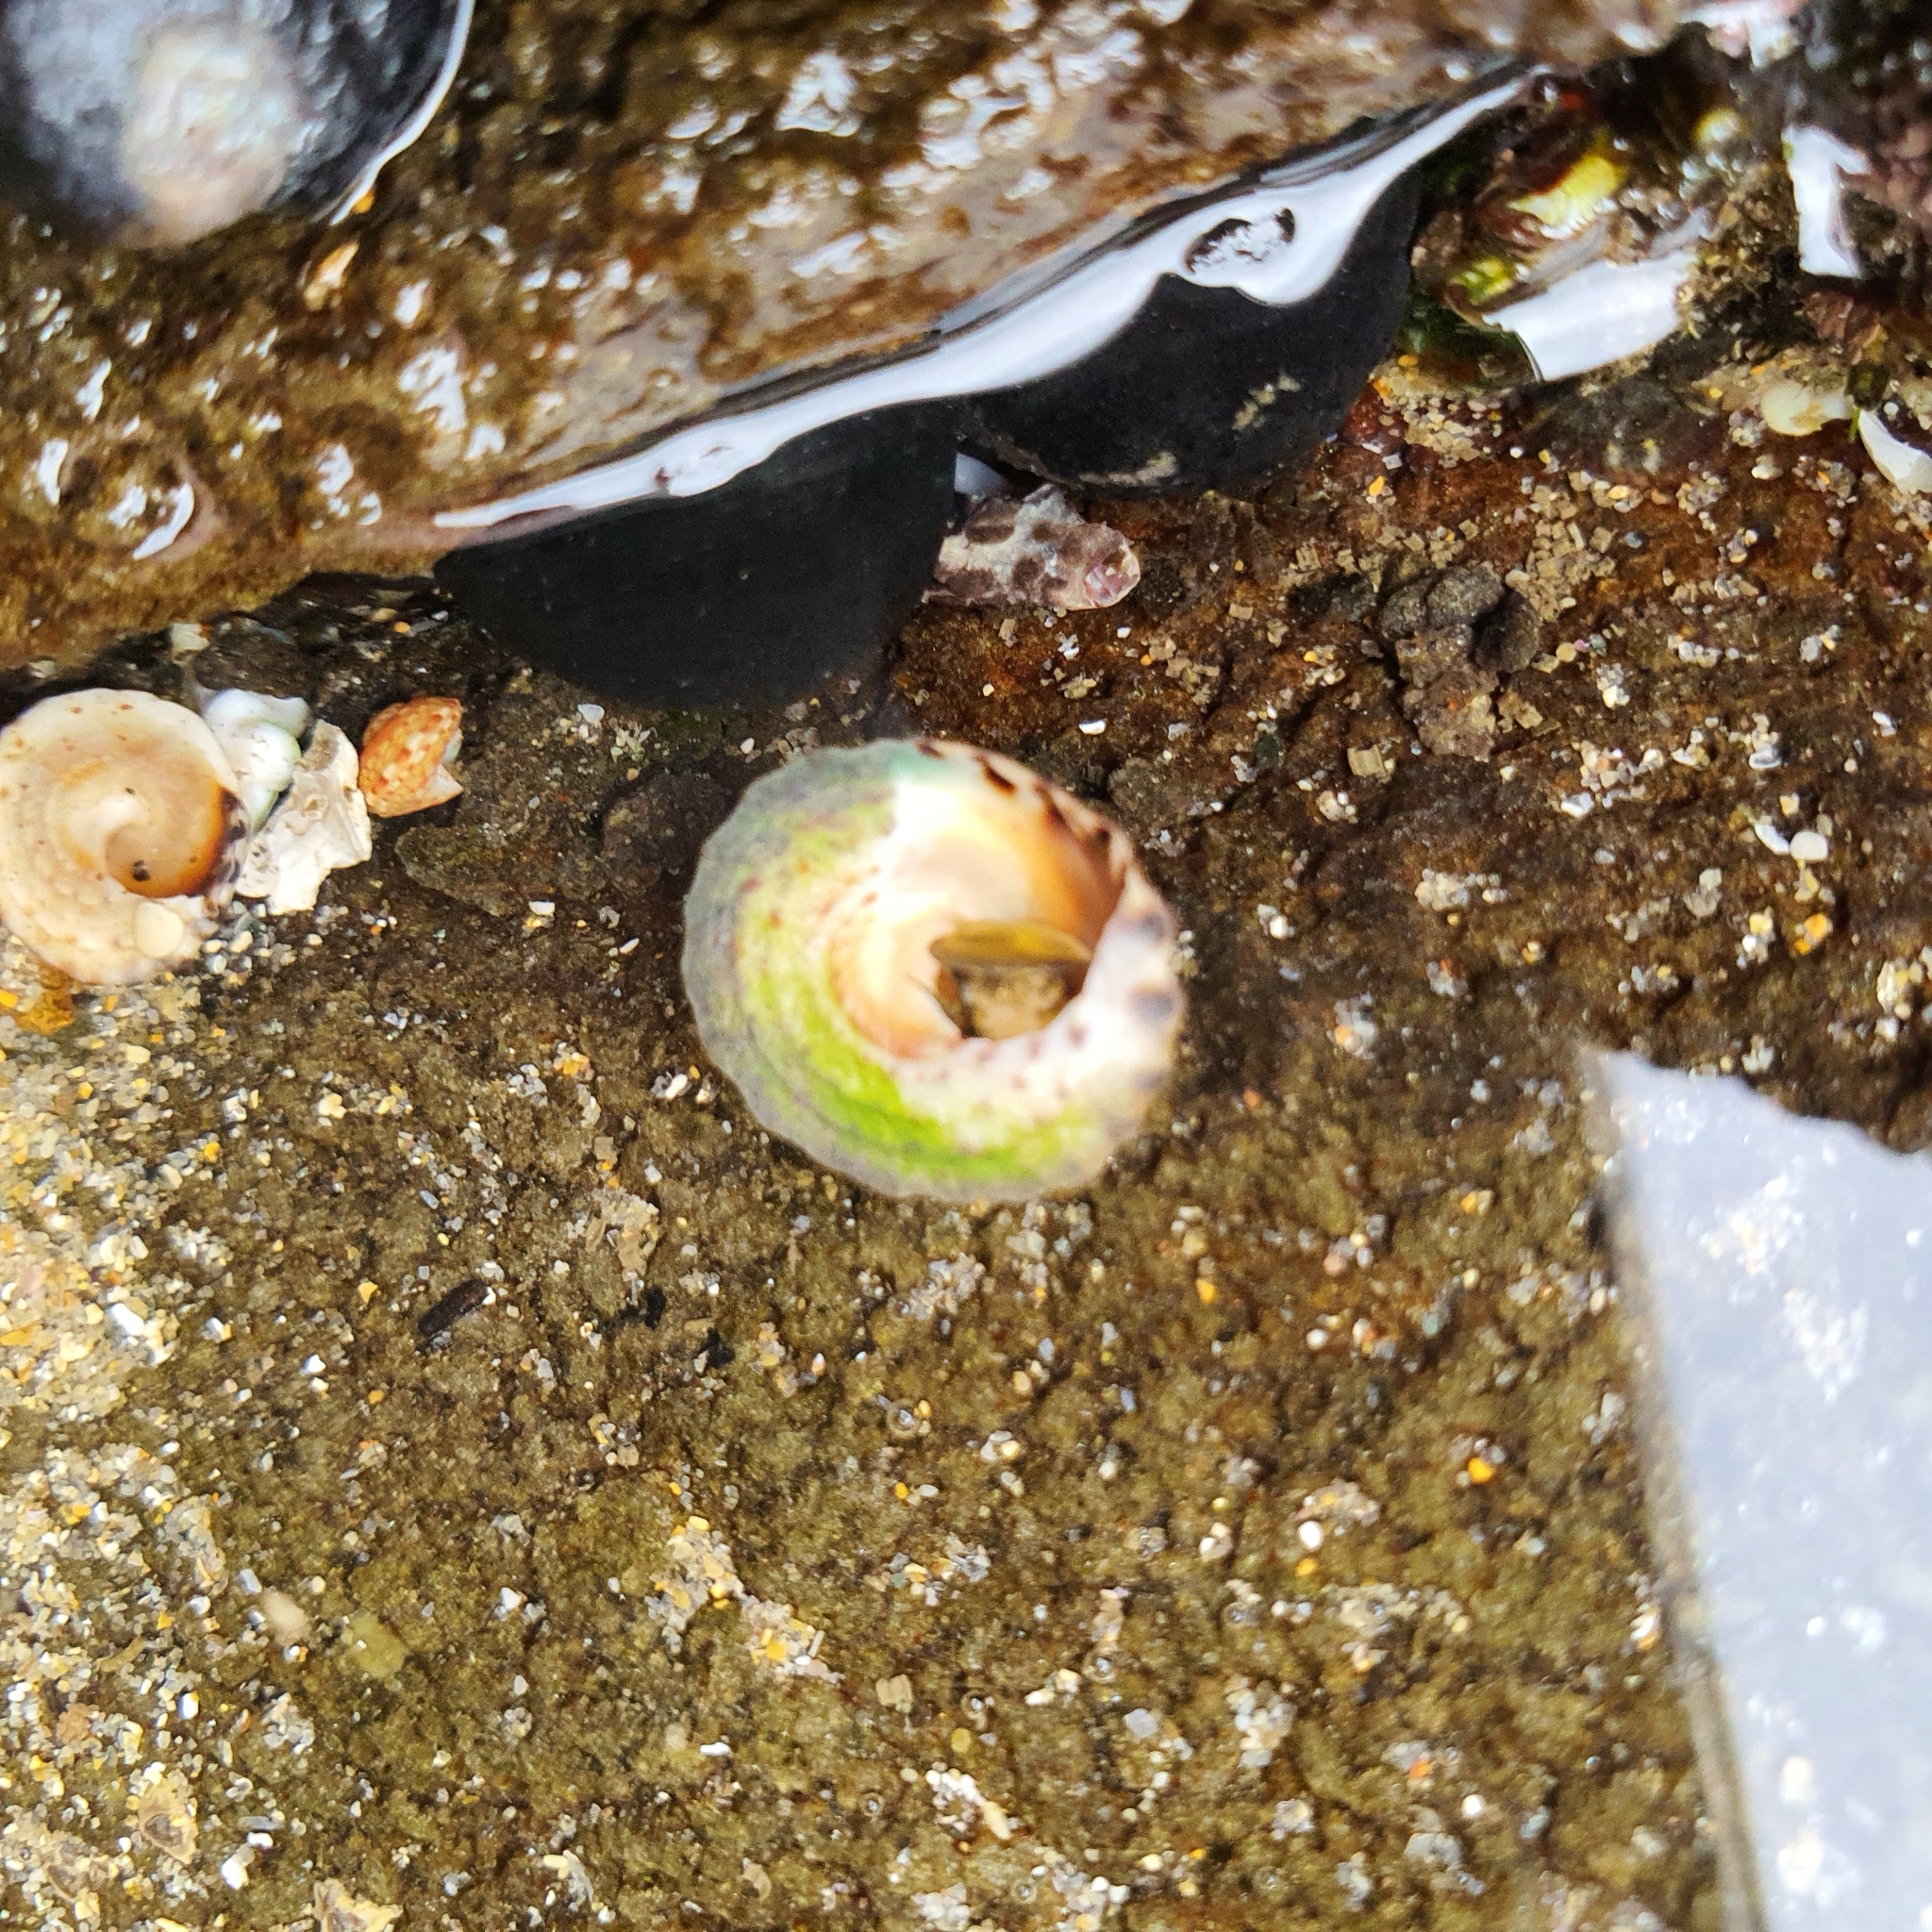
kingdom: Animalia
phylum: Mollusca
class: Gastropoda
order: Littorinimorpha
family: Littorinidae
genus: Bembicium
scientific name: Bembicium nanum
